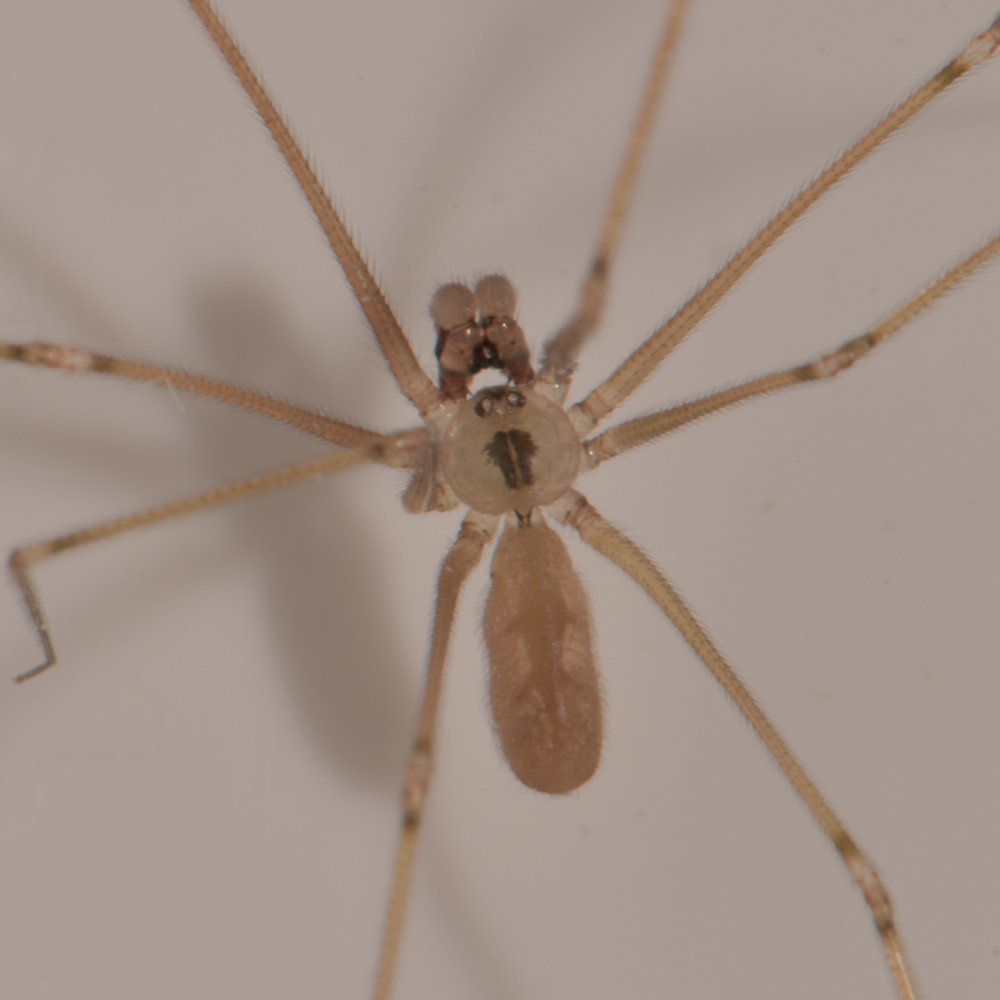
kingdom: Animalia
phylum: Arthropoda
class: Arachnida
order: Araneae
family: Pholcidae
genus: Pholcus
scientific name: Pholcus manueli
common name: Cellar spider
